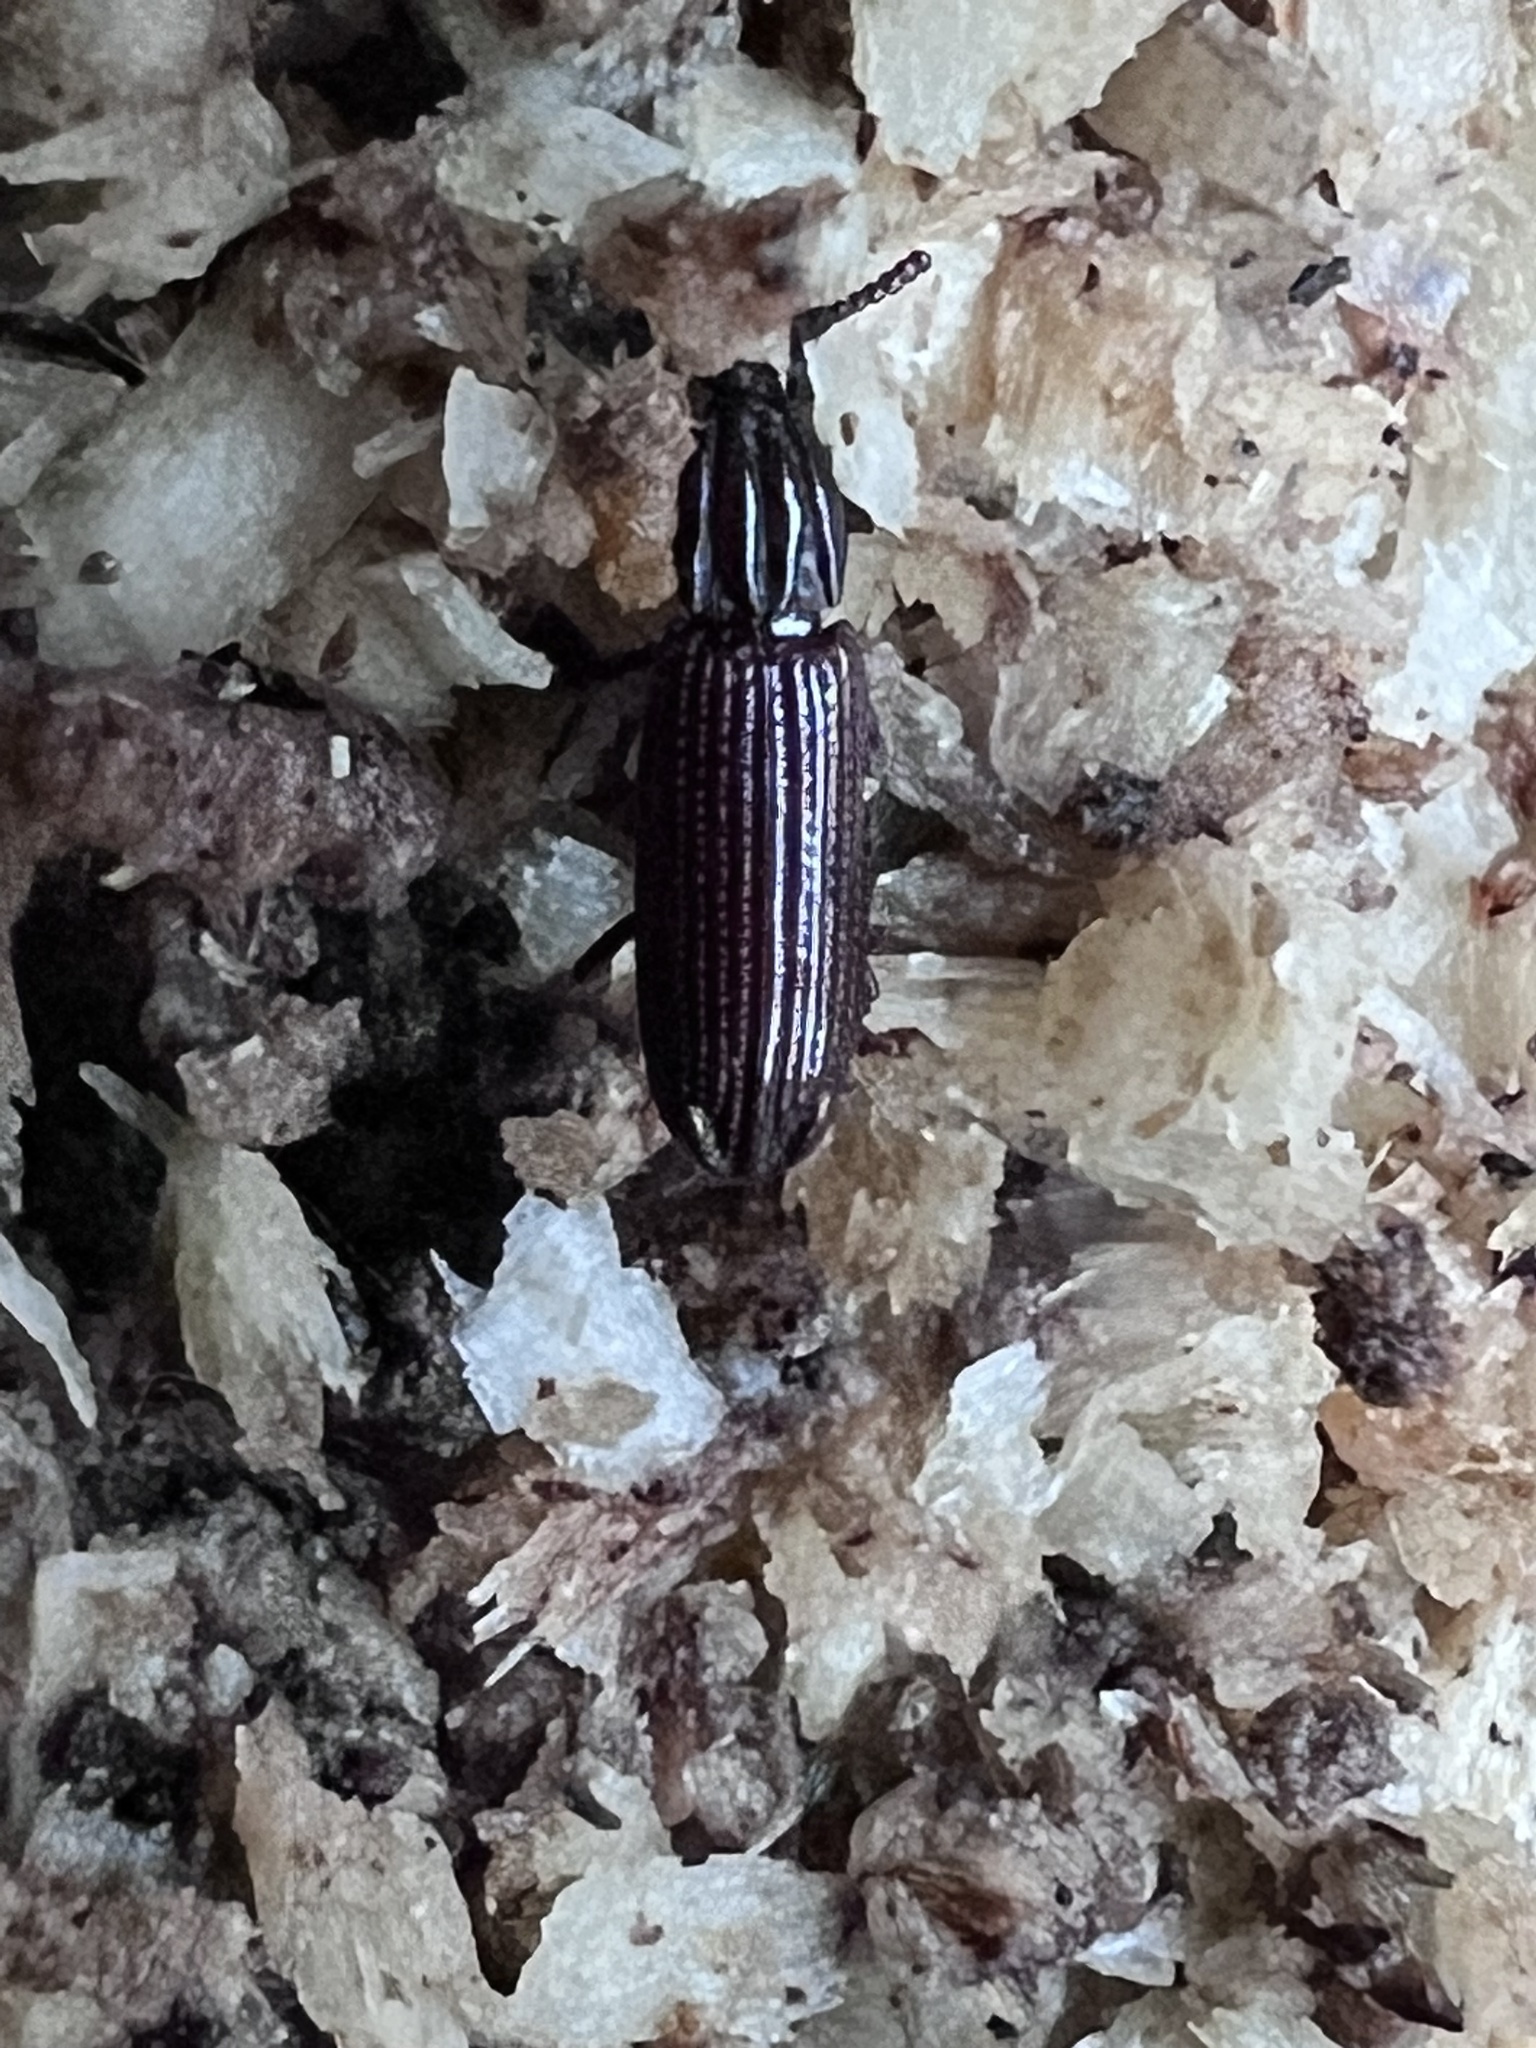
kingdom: Animalia
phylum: Arthropoda
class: Insecta
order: Coleoptera
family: Carabidae
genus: Omoglymmius
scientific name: Omoglymmius americanus
